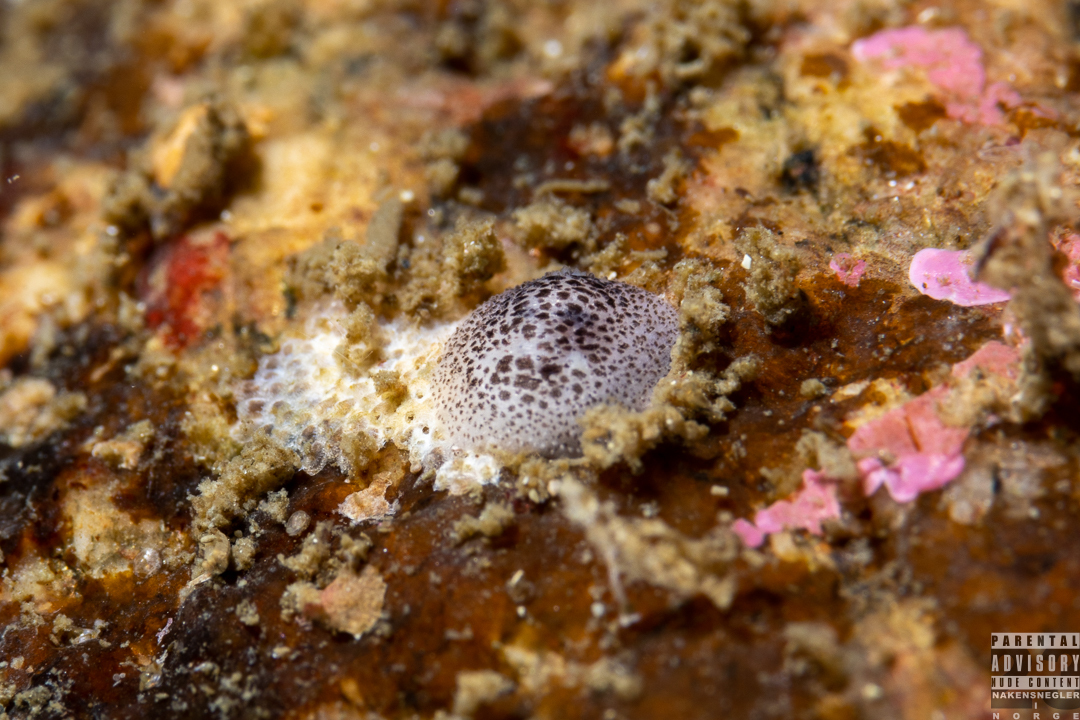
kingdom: Animalia
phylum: Mollusca
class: Gastropoda
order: Nudibranchia
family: Onchidorididae
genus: Atalodoris
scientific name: Atalodoris pusilla
